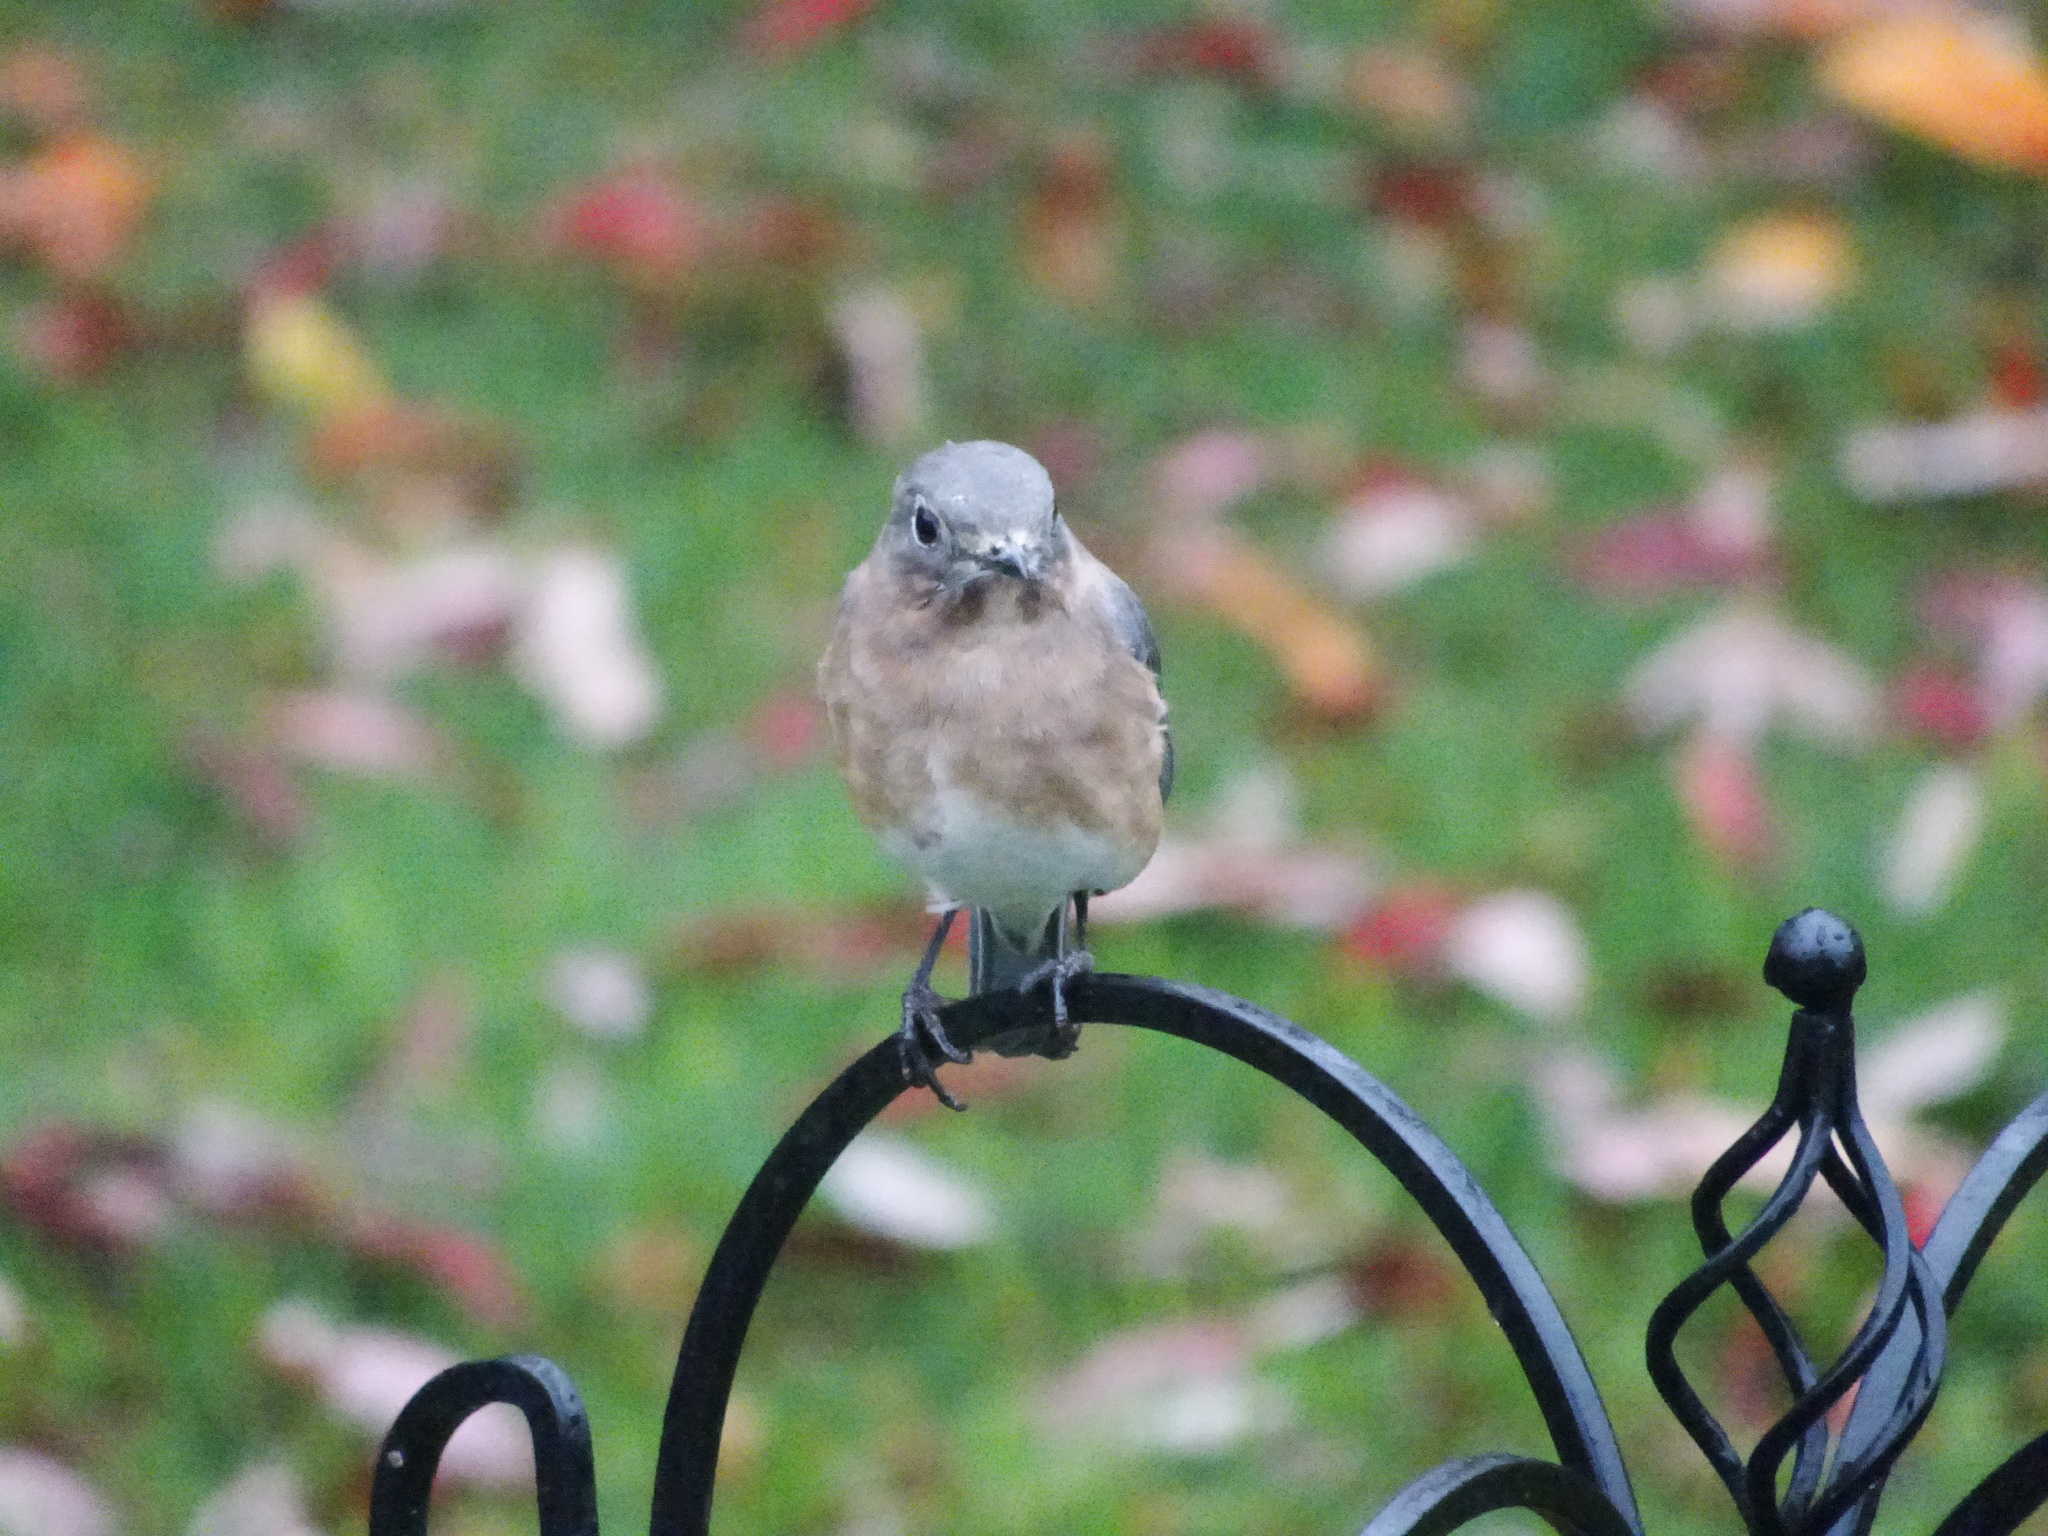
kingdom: Animalia
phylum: Chordata
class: Aves
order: Passeriformes
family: Turdidae
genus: Sialia
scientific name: Sialia sialis
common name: Eastern bluebird
